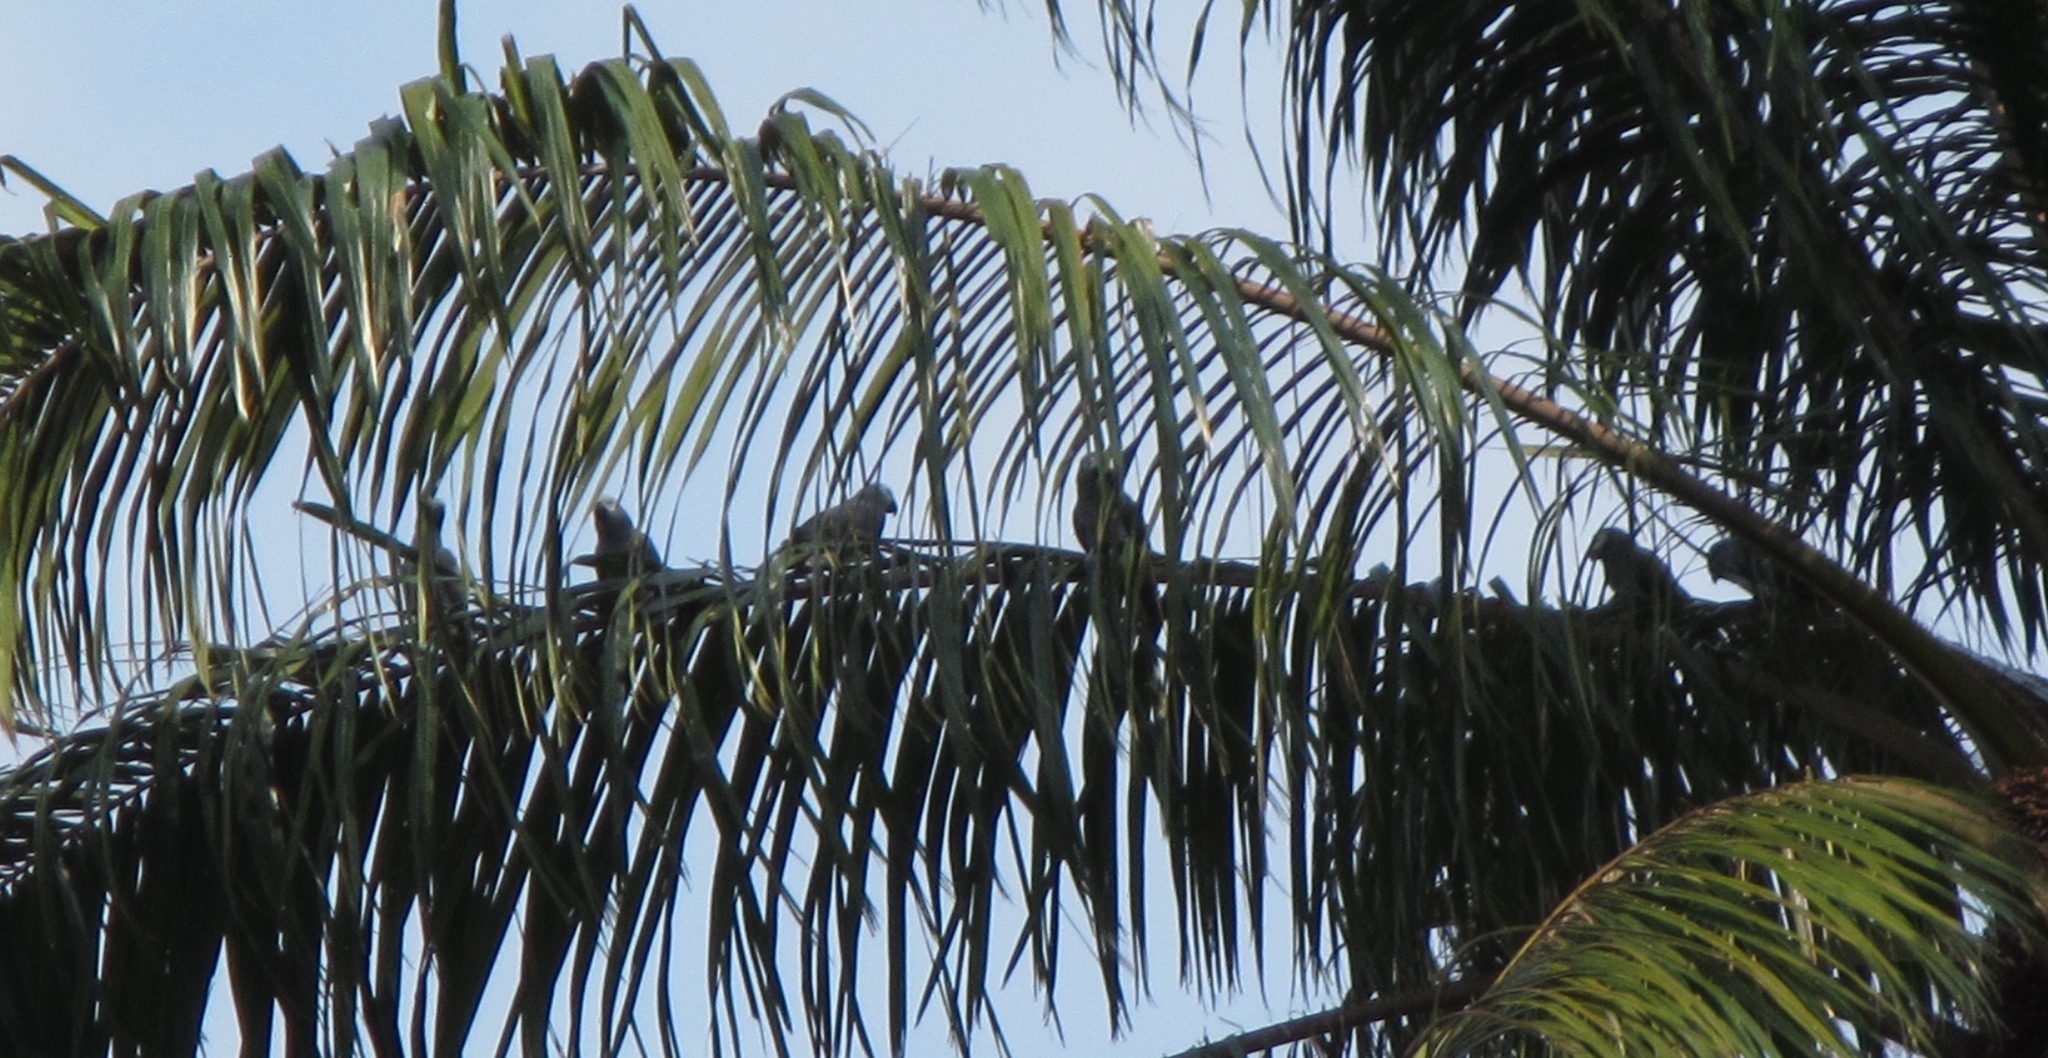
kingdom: Animalia
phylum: Chordata
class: Aves
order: Psittaciformes
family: Psittacidae
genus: Psittacus
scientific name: Psittacus erithacus
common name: Grey parrot
